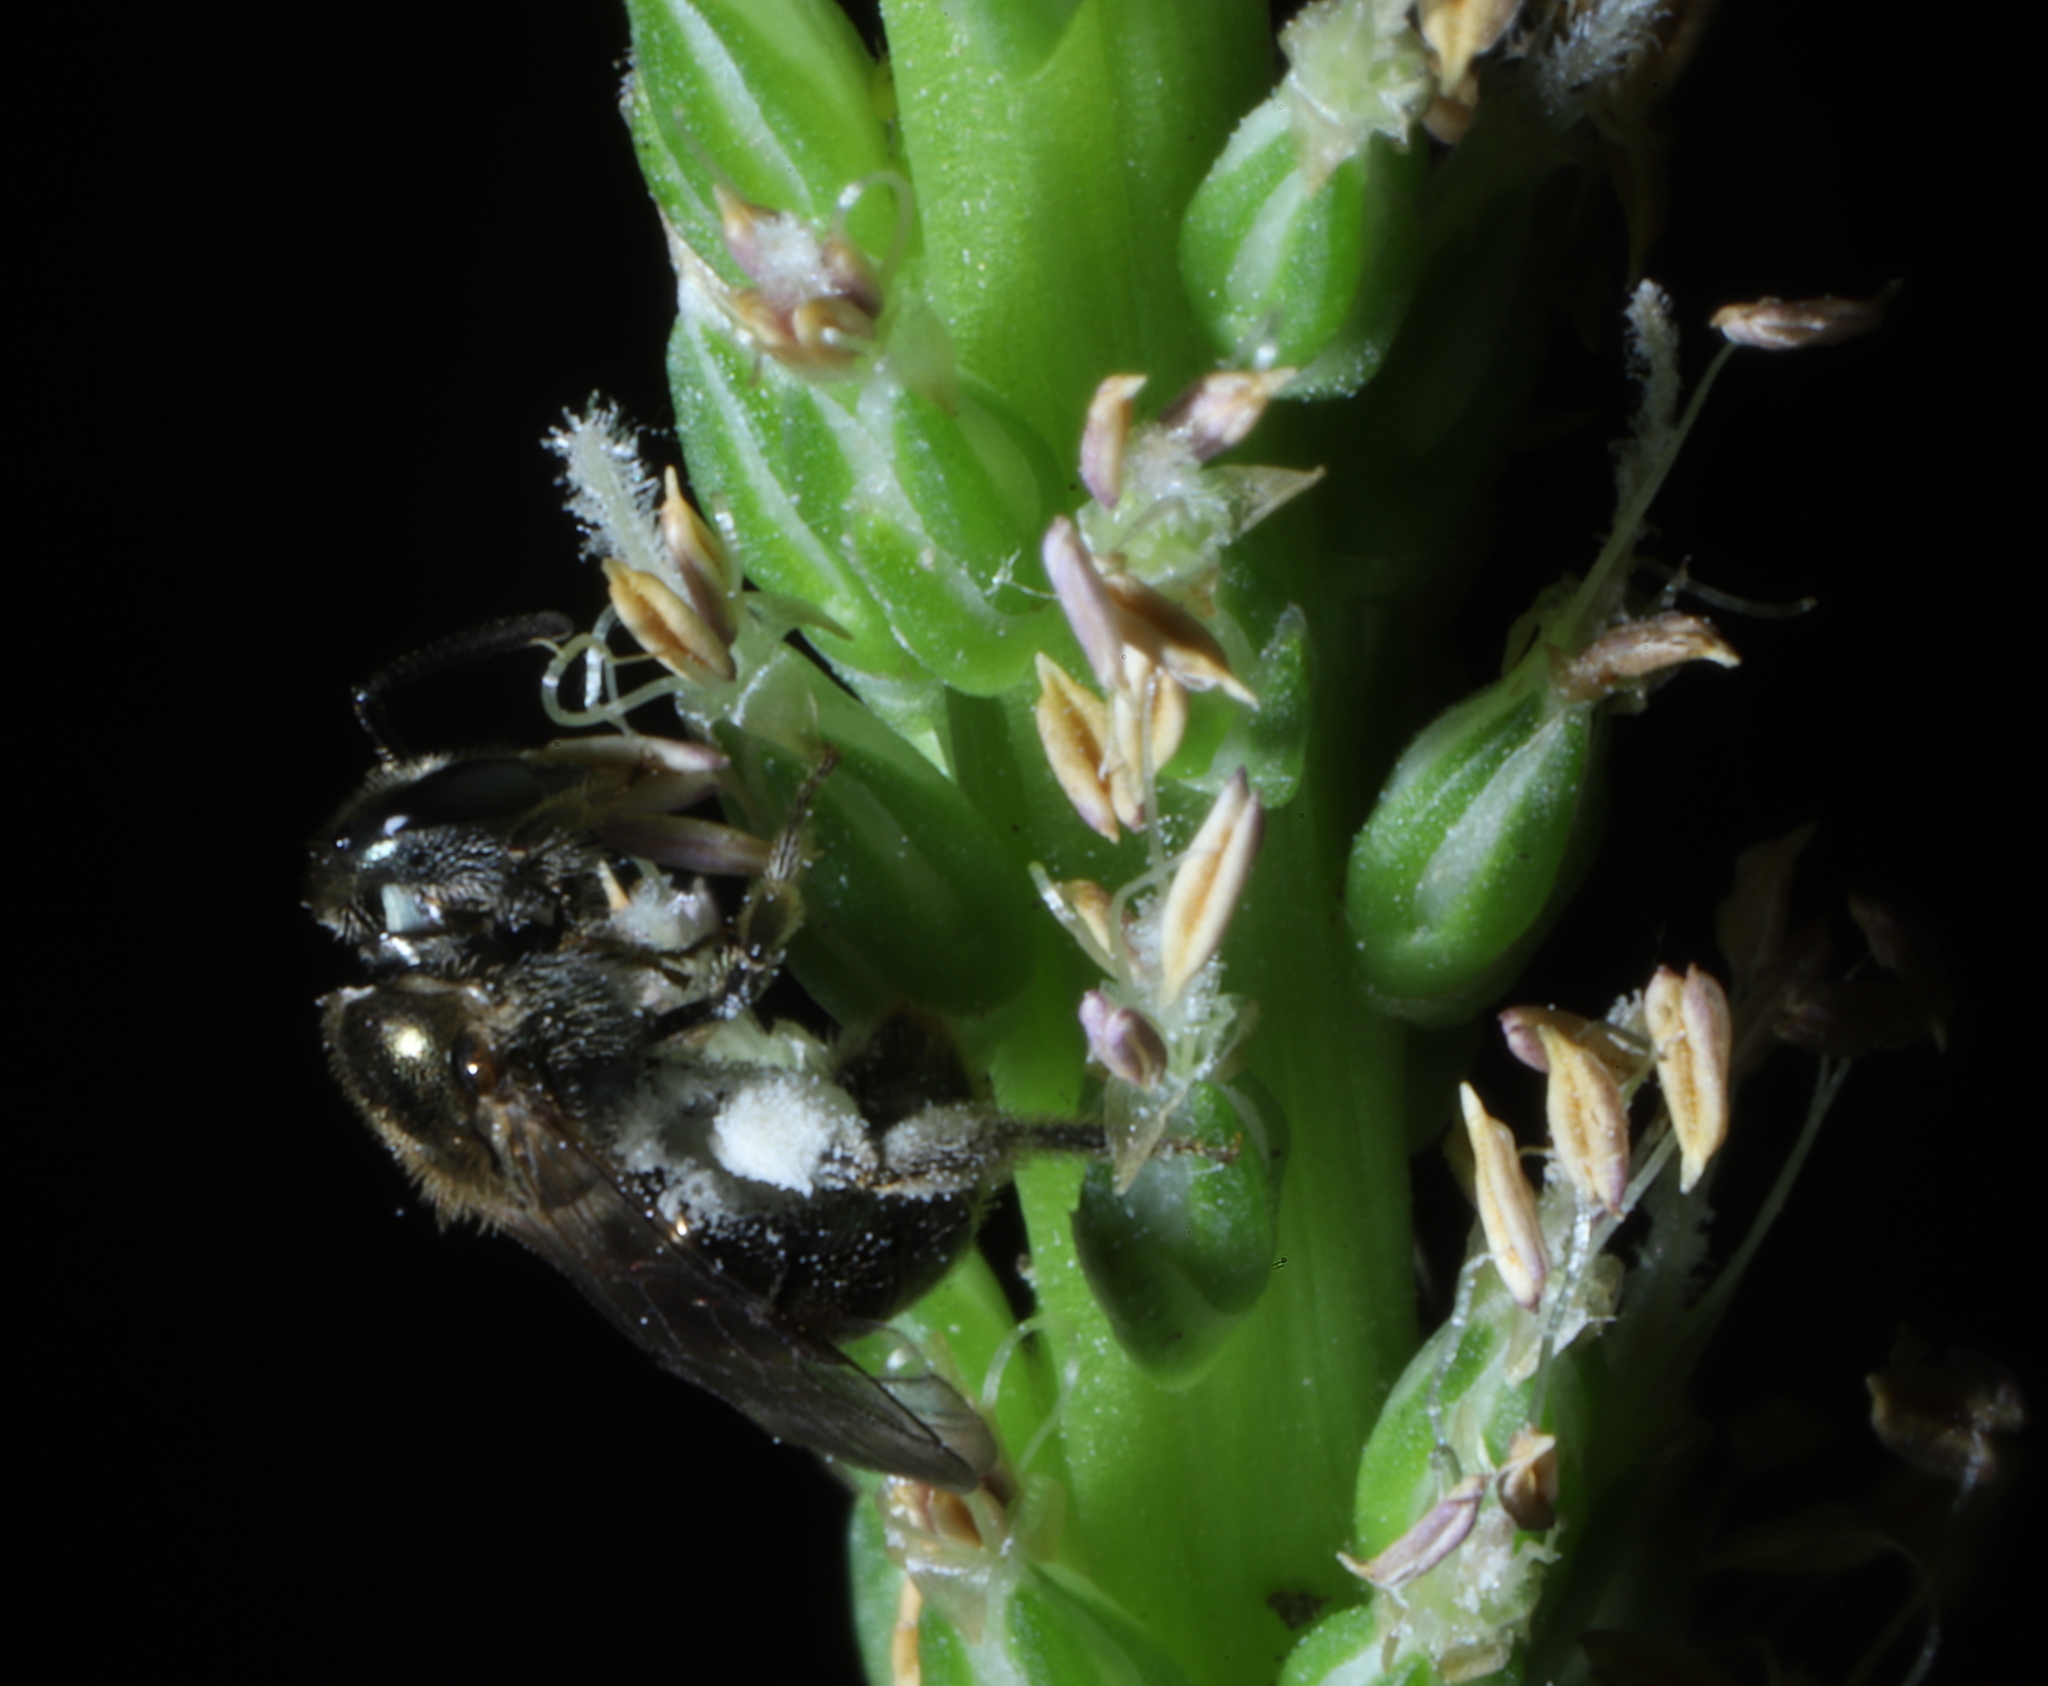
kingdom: Animalia
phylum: Arthropoda
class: Insecta
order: Hymenoptera
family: Halictidae
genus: Dialictus
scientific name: Dialictus
